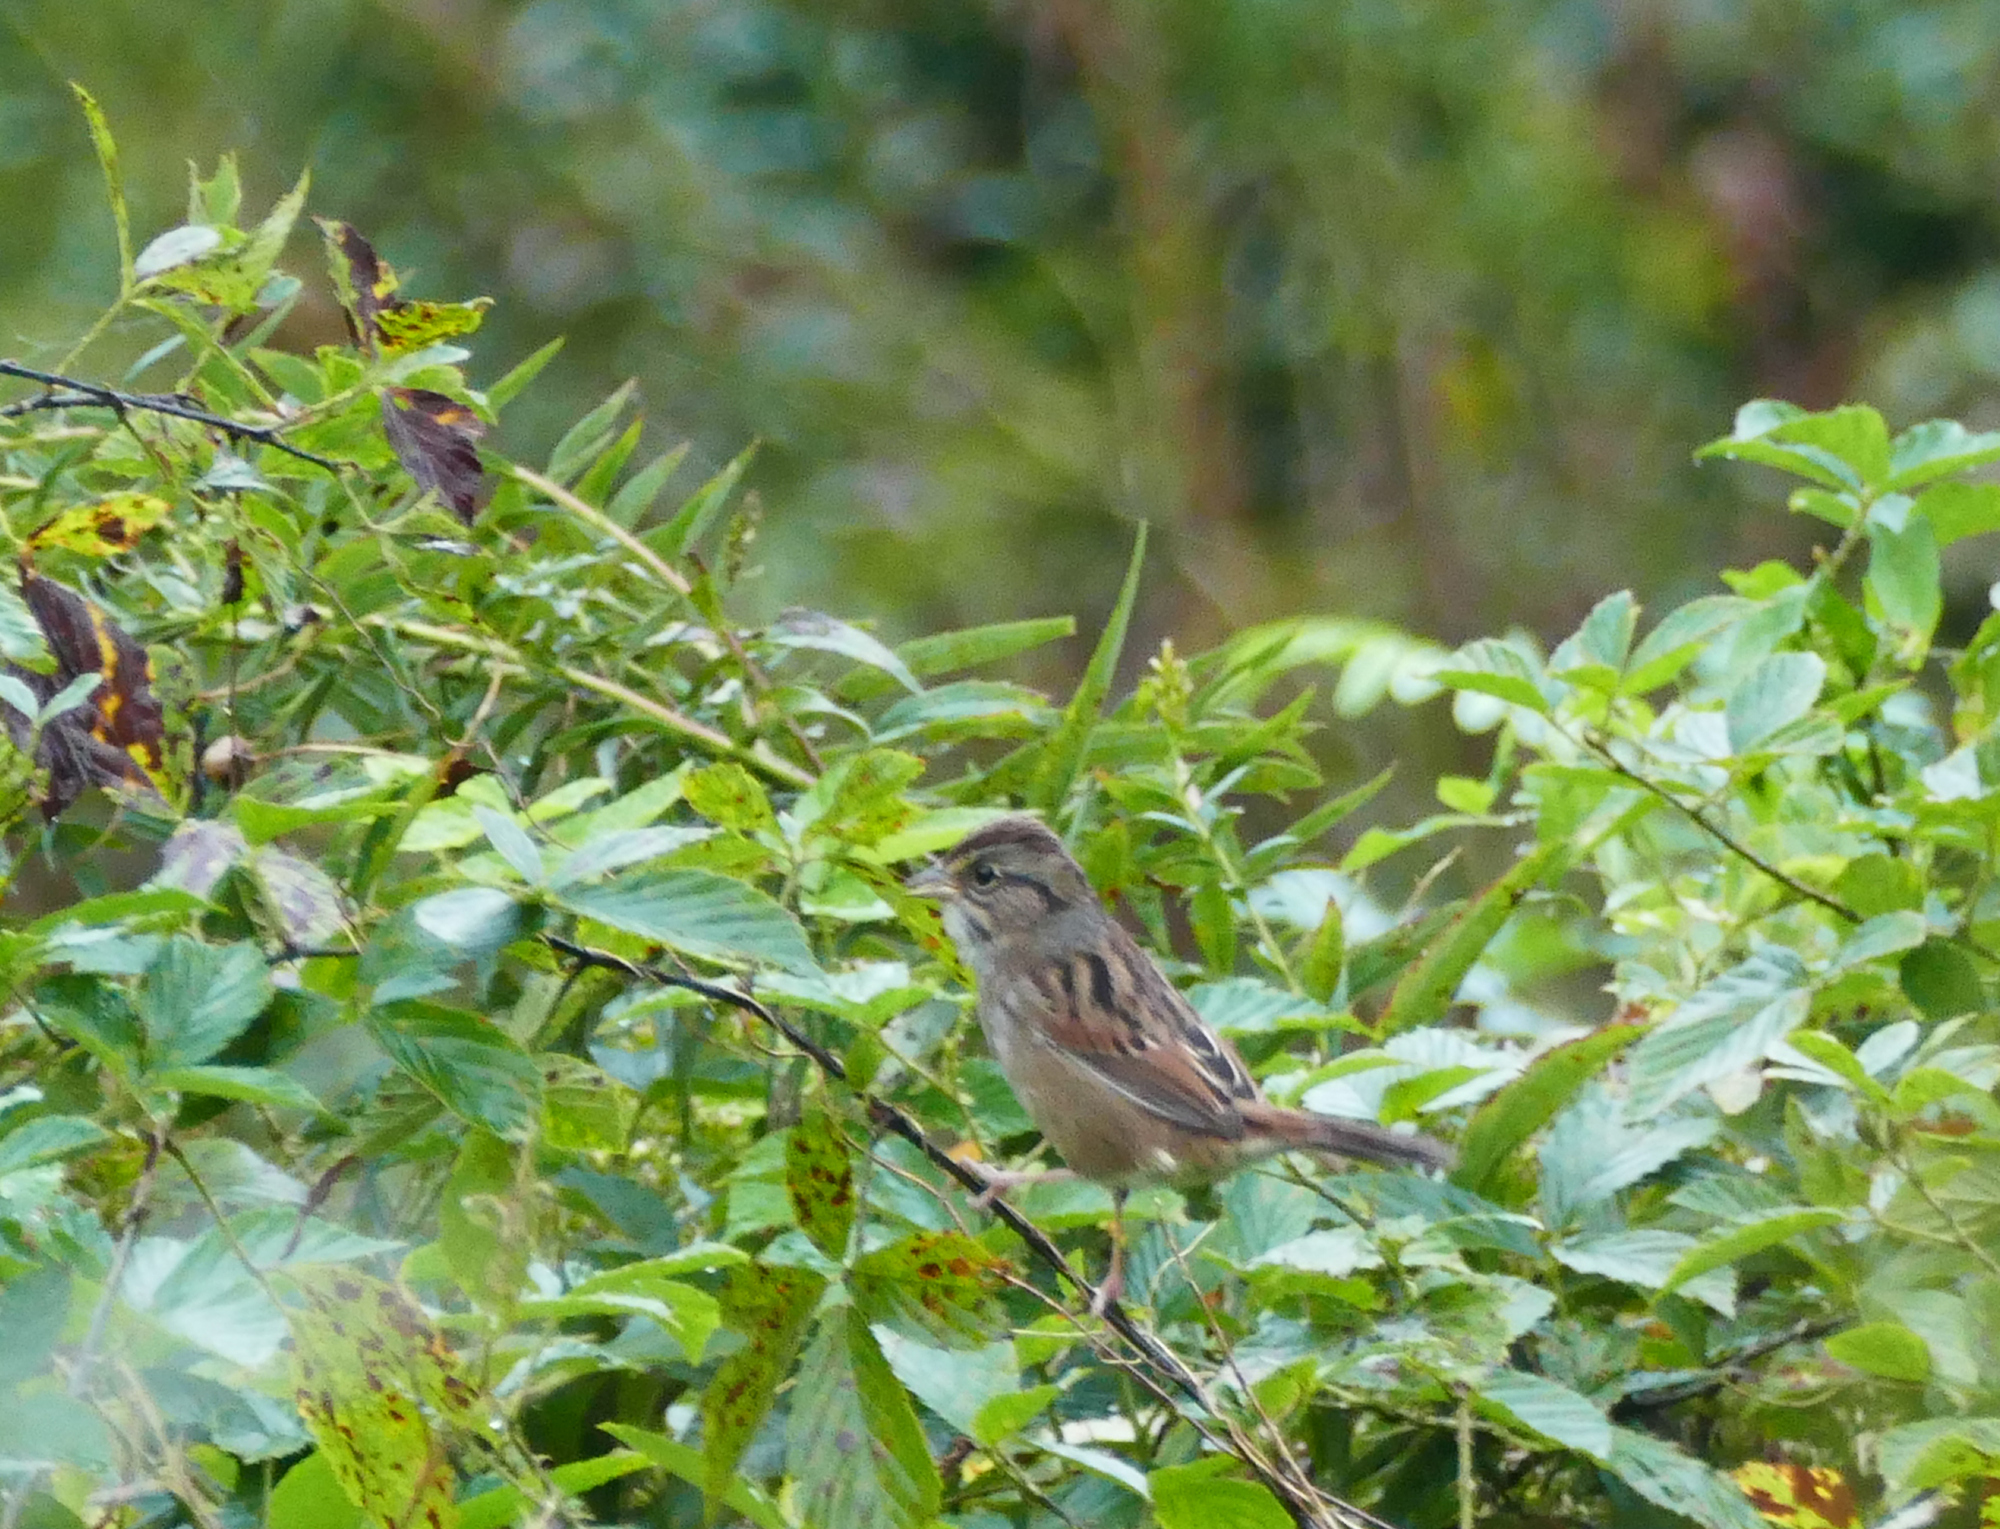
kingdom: Animalia
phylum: Chordata
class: Aves
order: Passeriformes
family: Passerellidae
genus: Melospiza
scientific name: Melospiza georgiana
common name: Swamp sparrow
